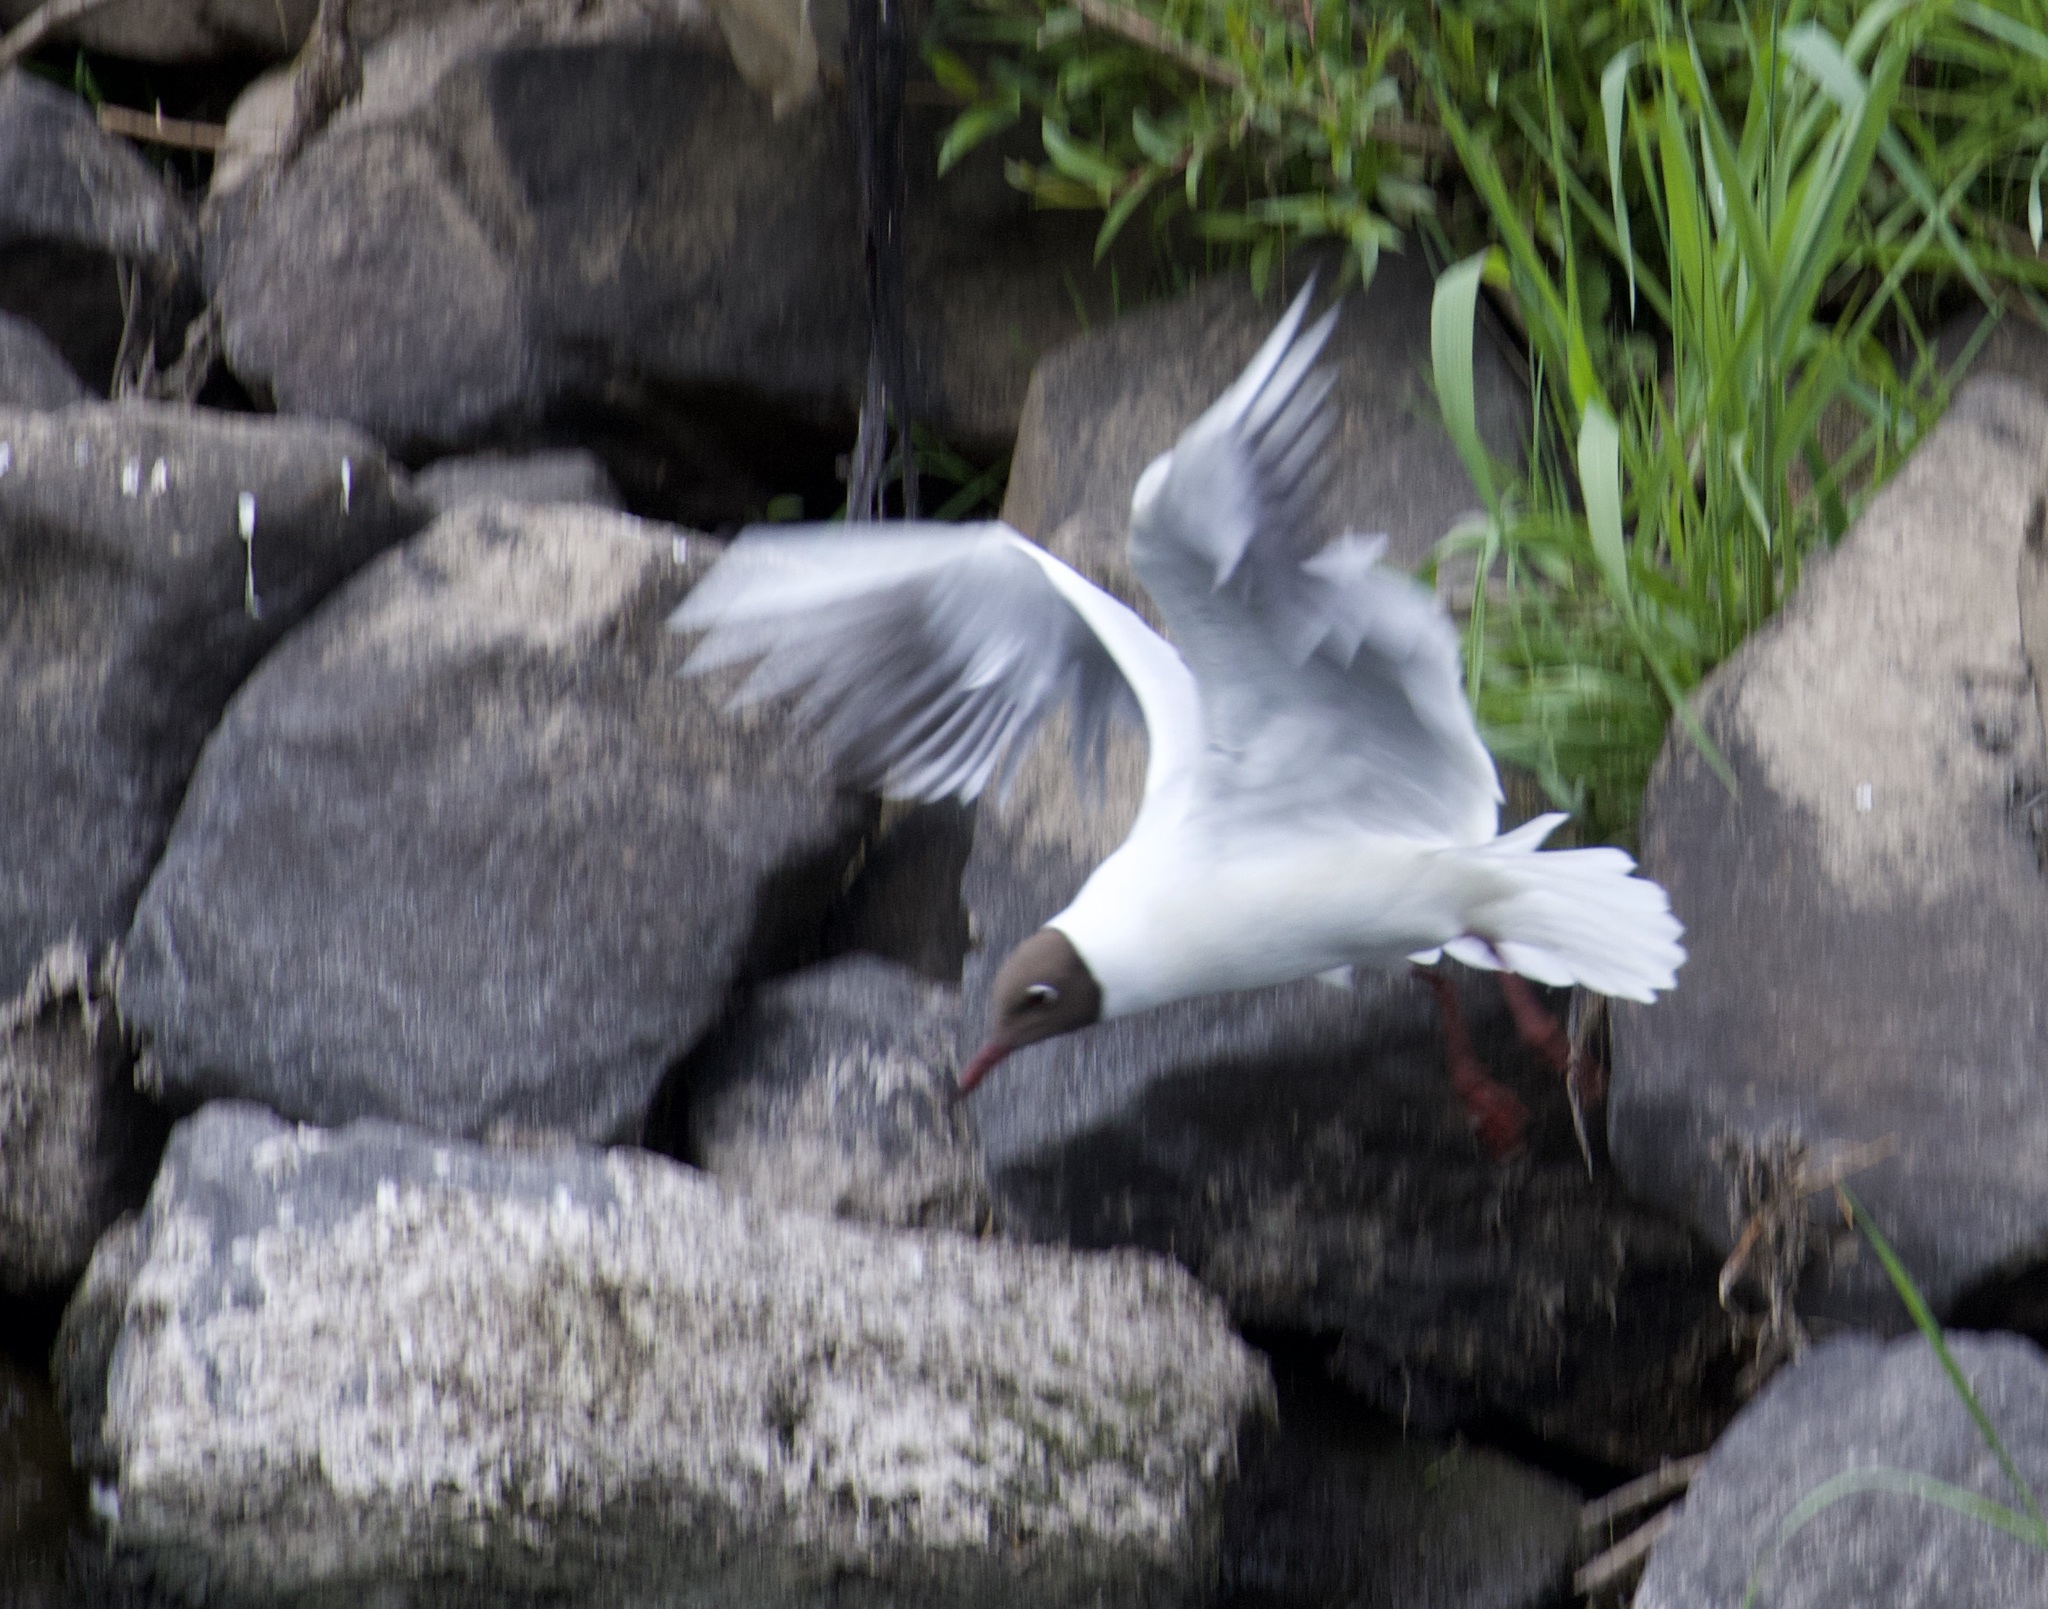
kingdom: Animalia
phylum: Chordata
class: Aves
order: Charadriiformes
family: Laridae
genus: Chroicocephalus
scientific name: Chroicocephalus ridibundus
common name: Black-headed gull
